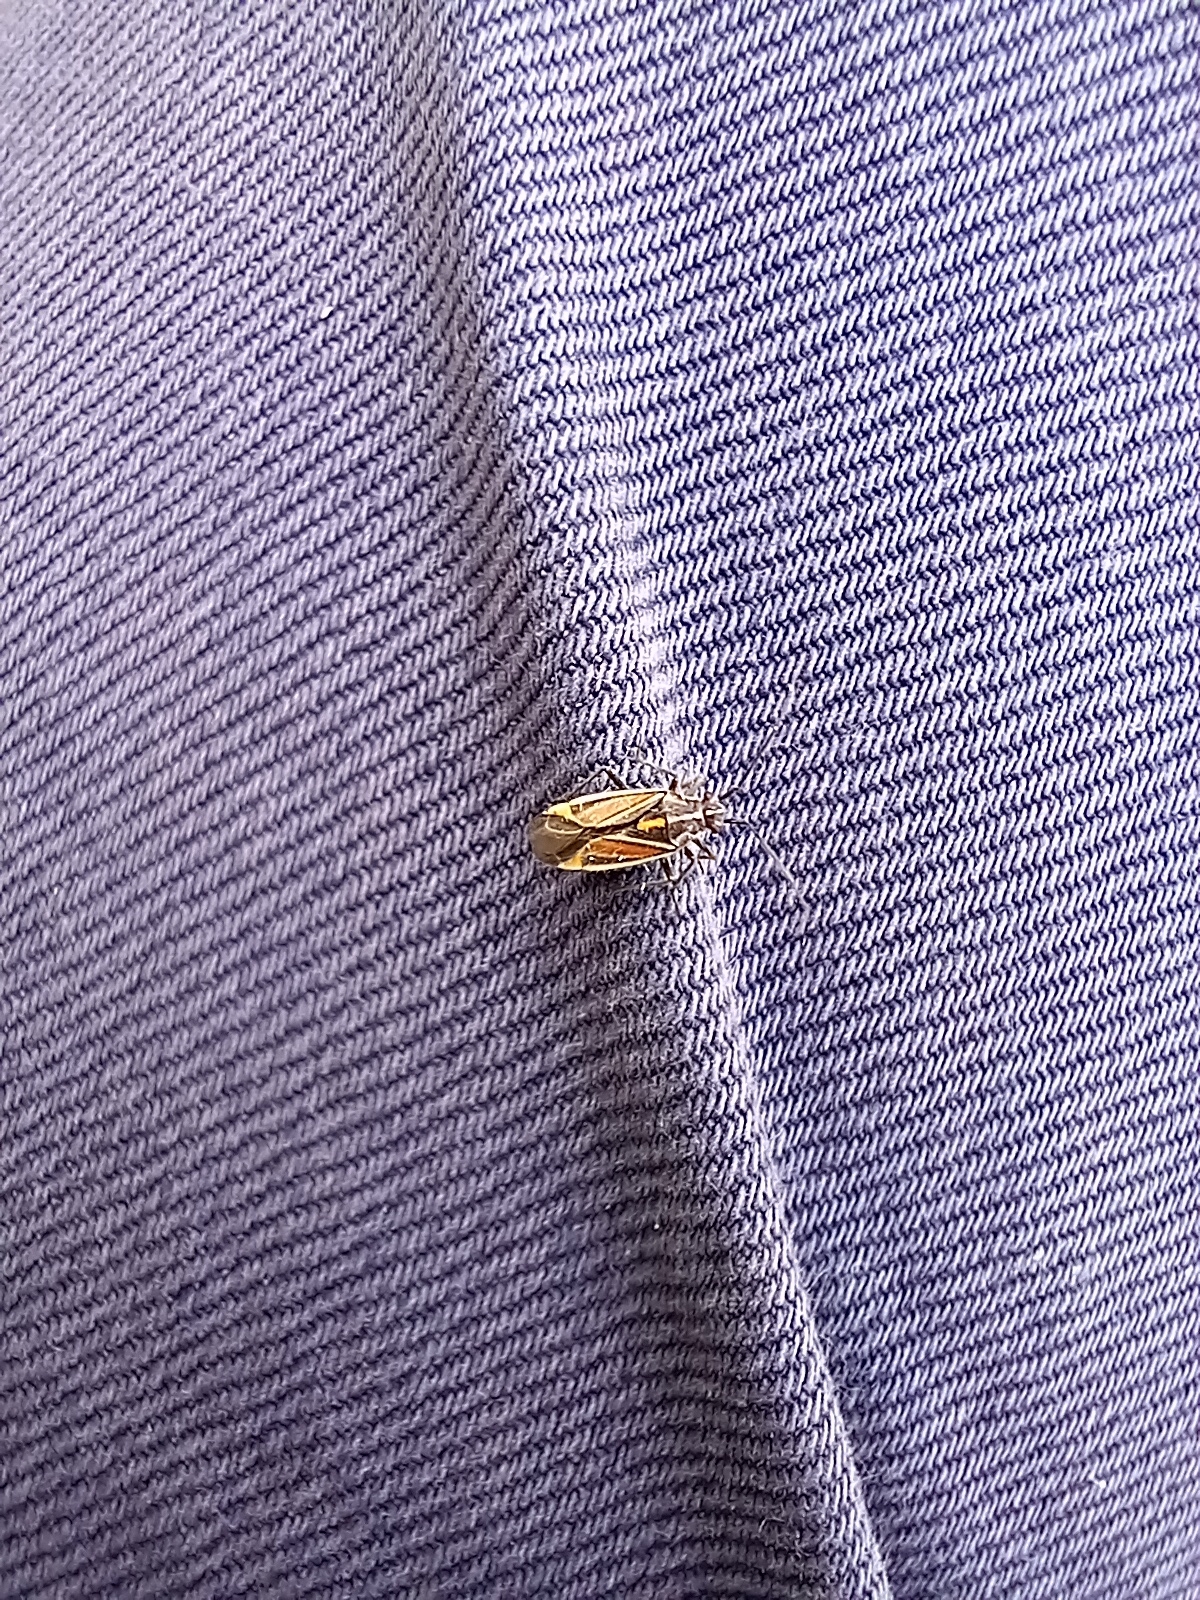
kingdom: Animalia
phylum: Arthropoda
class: Insecta
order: Hemiptera
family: Miridae
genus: Horistus
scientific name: Horistus orientalis
